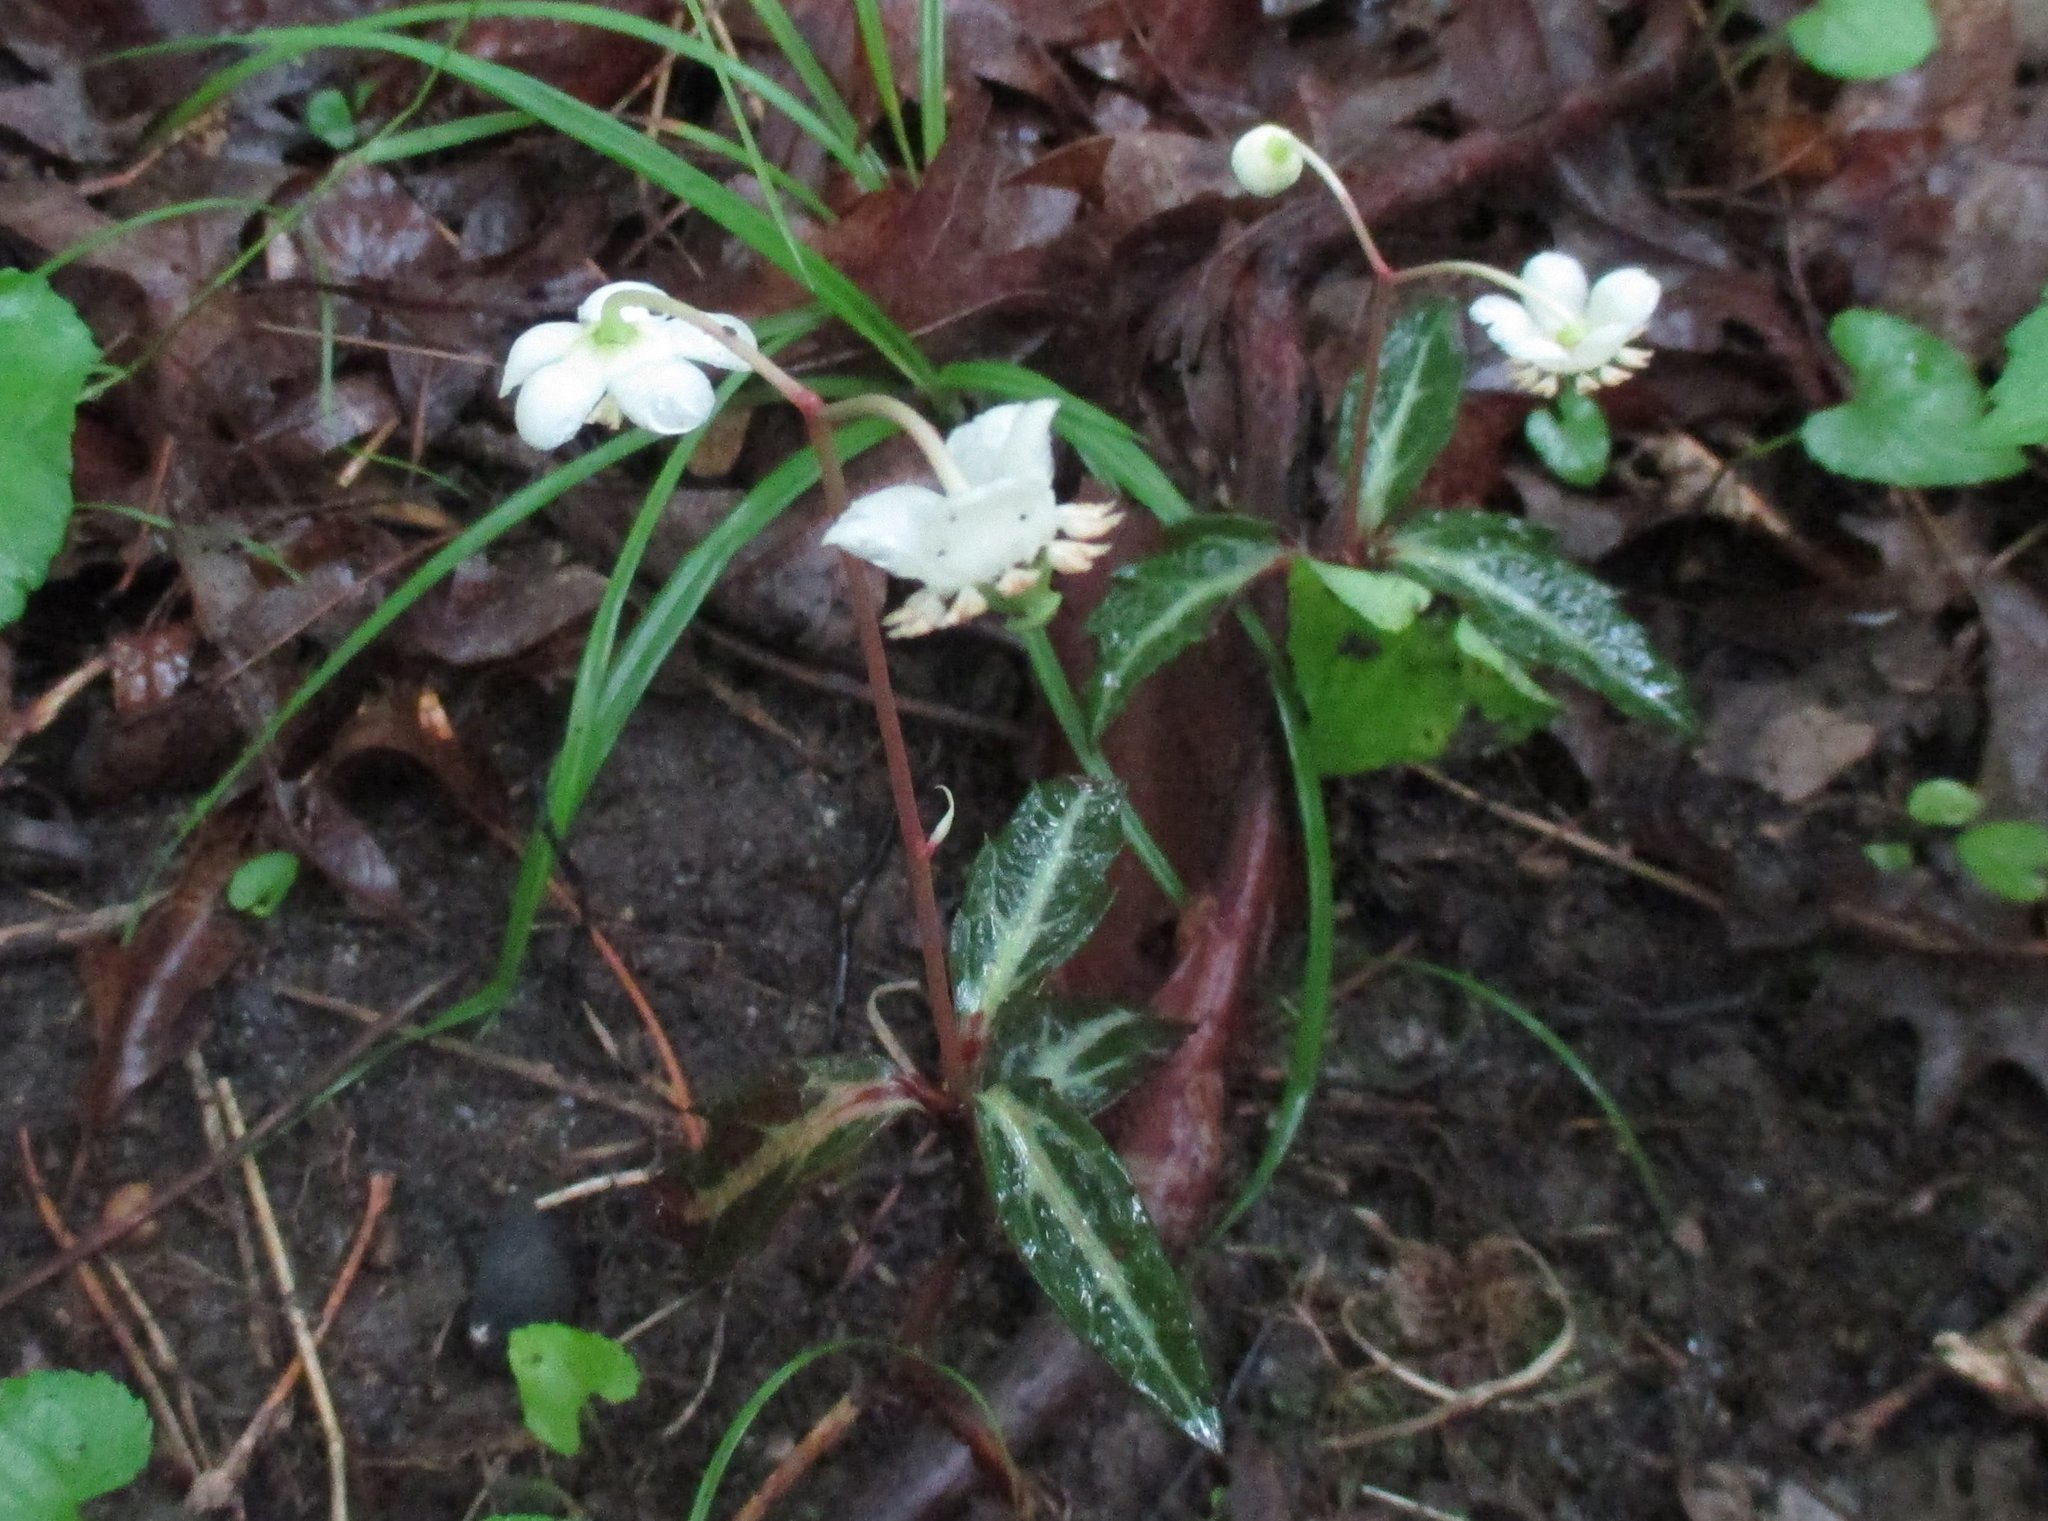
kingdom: Plantae
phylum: Tracheophyta
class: Magnoliopsida
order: Ericales
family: Ericaceae
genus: Chimaphila
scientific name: Chimaphila maculata
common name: Spotted pipsissewa
